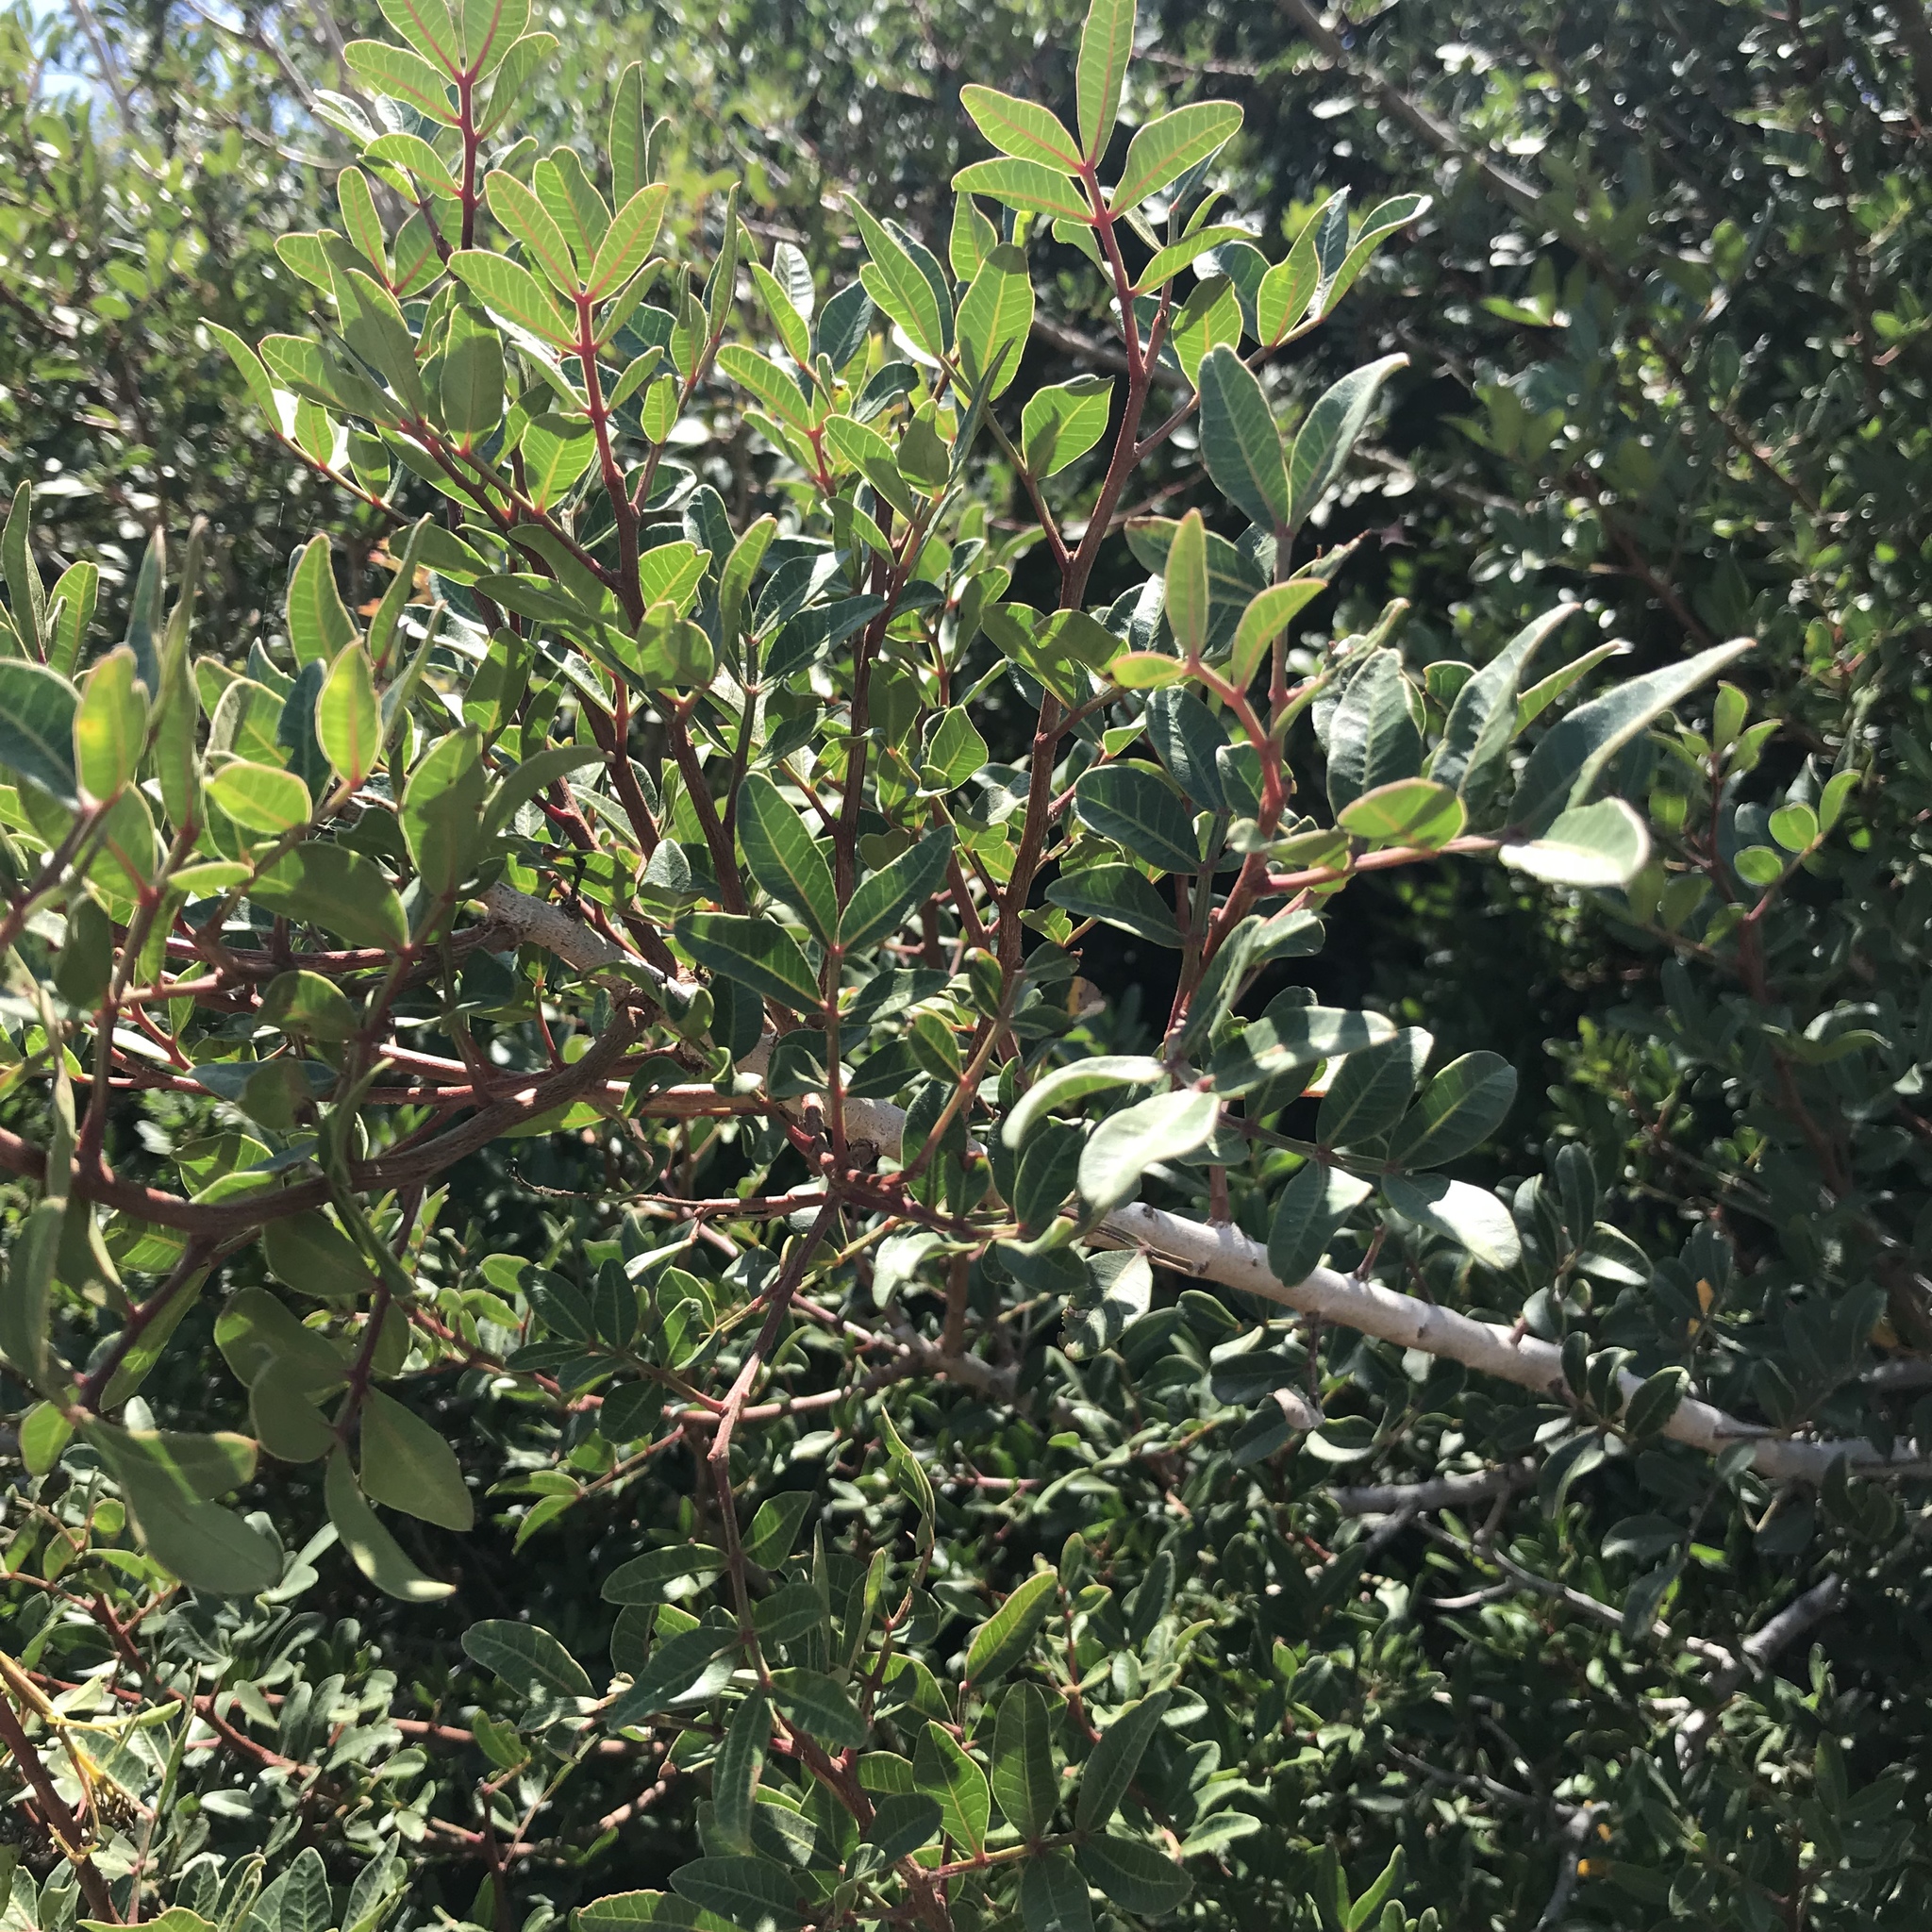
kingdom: Plantae
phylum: Tracheophyta
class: Magnoliopsida
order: Sapindales
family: Anacardiaceae
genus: Pistacia
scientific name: Pistacia lentiscus
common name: Lentisk
